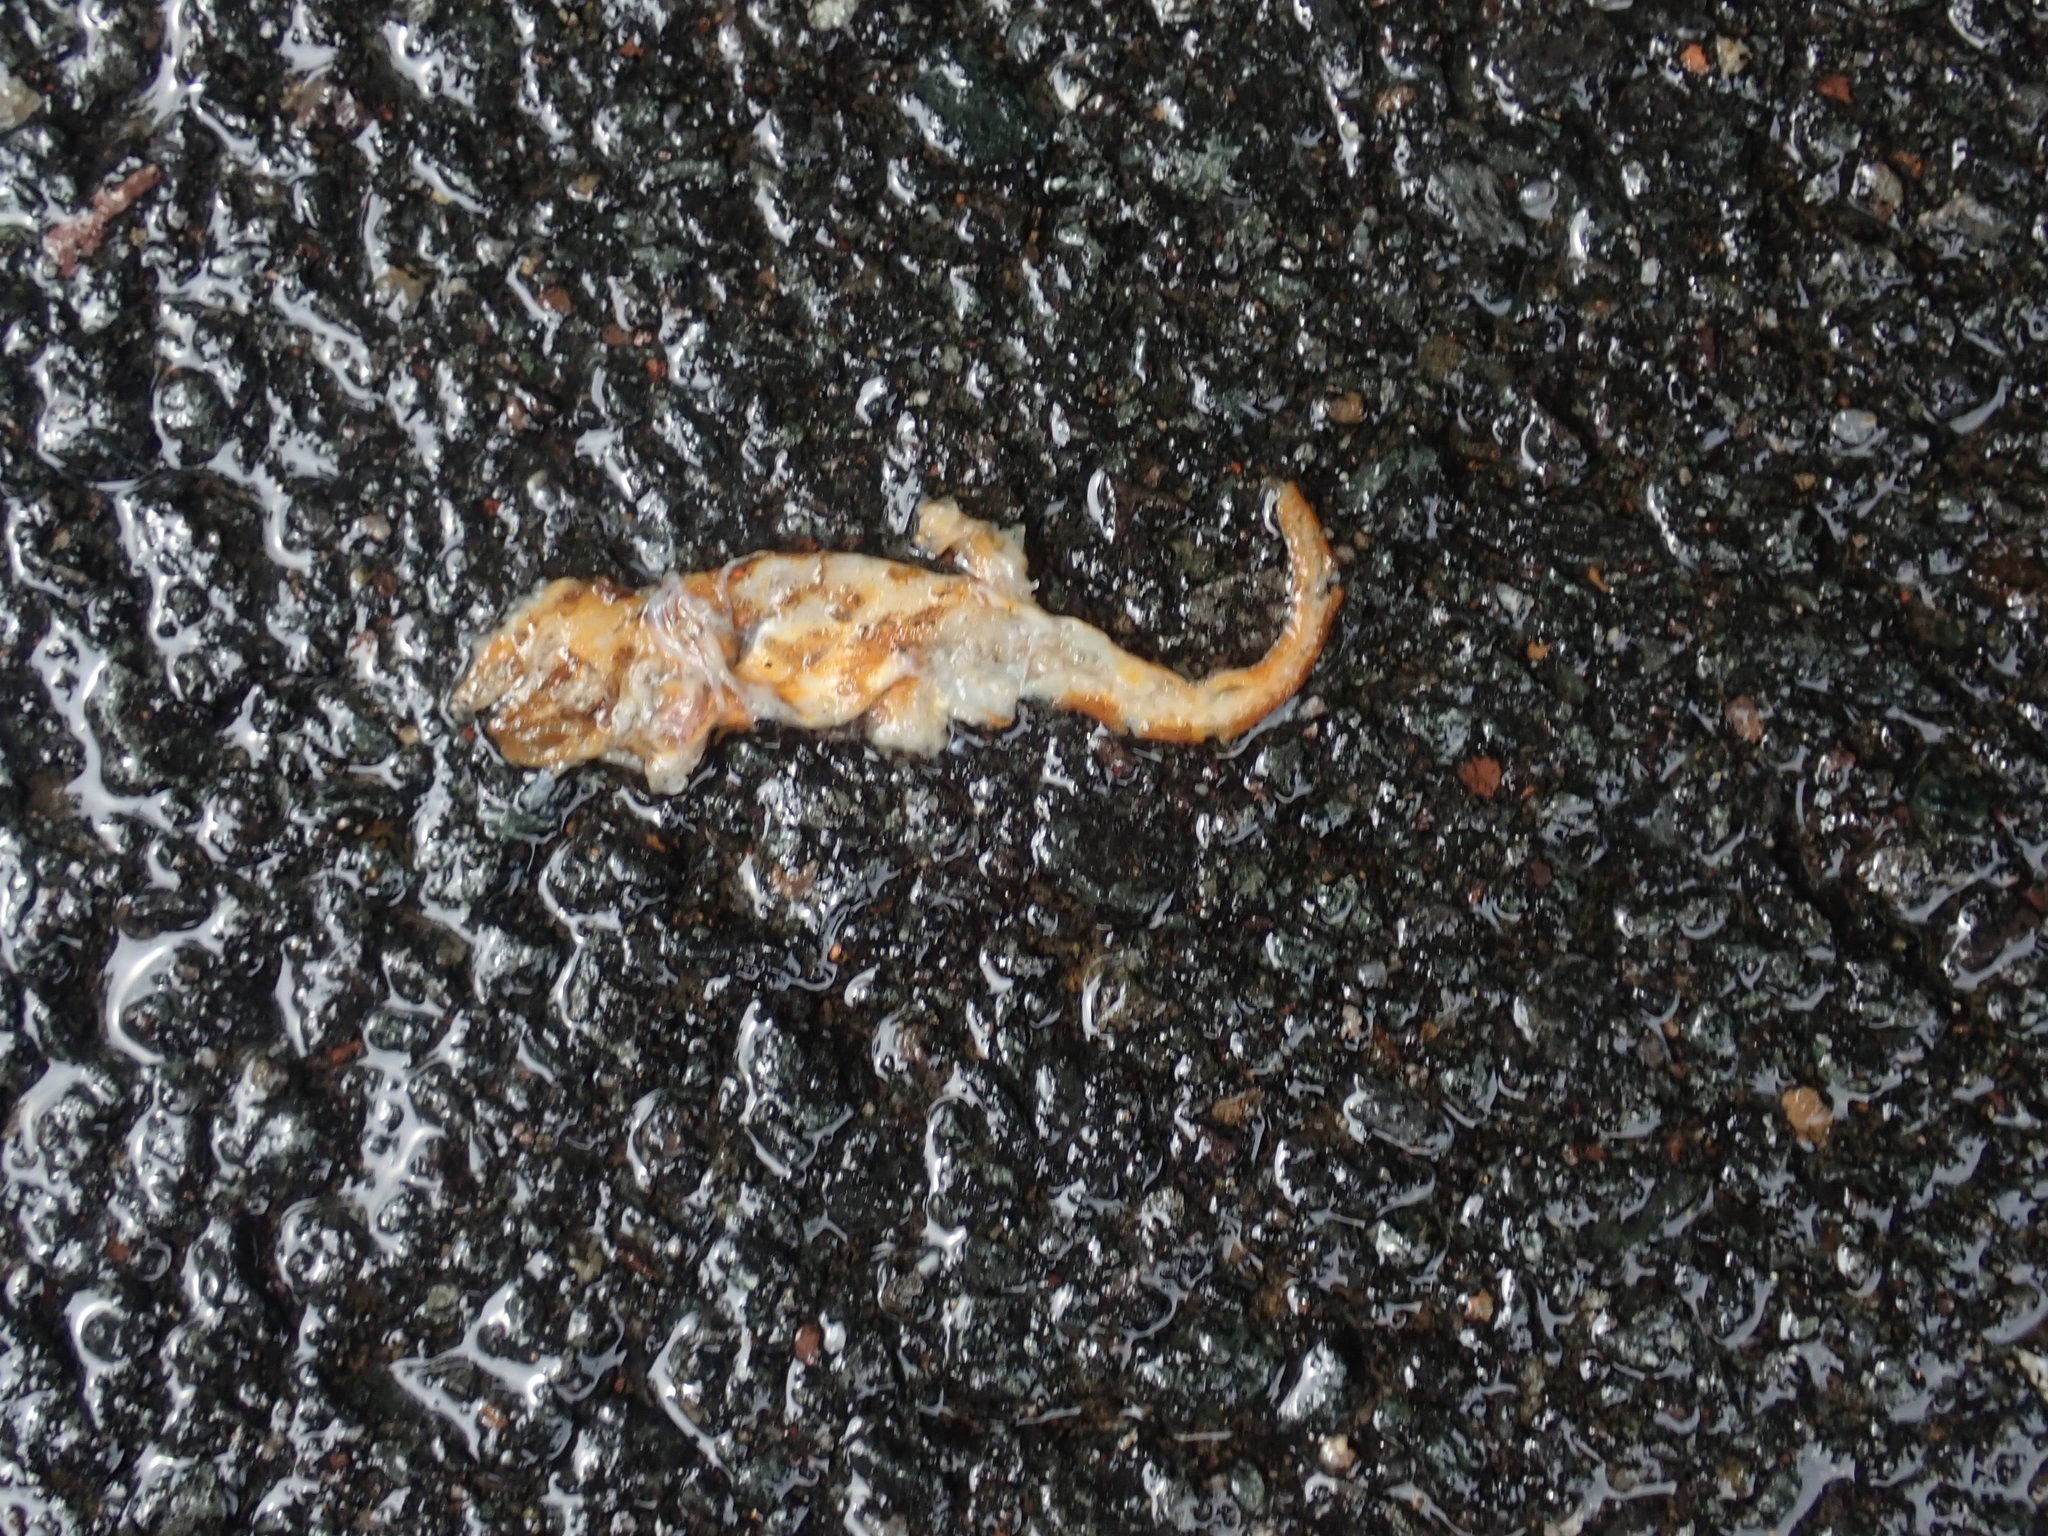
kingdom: Animalia
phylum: Chordata
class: Amphibia
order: Caudata
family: Salamandridae
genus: Notophthalmus
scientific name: Notophthalmus viridescens
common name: Eastern newt
